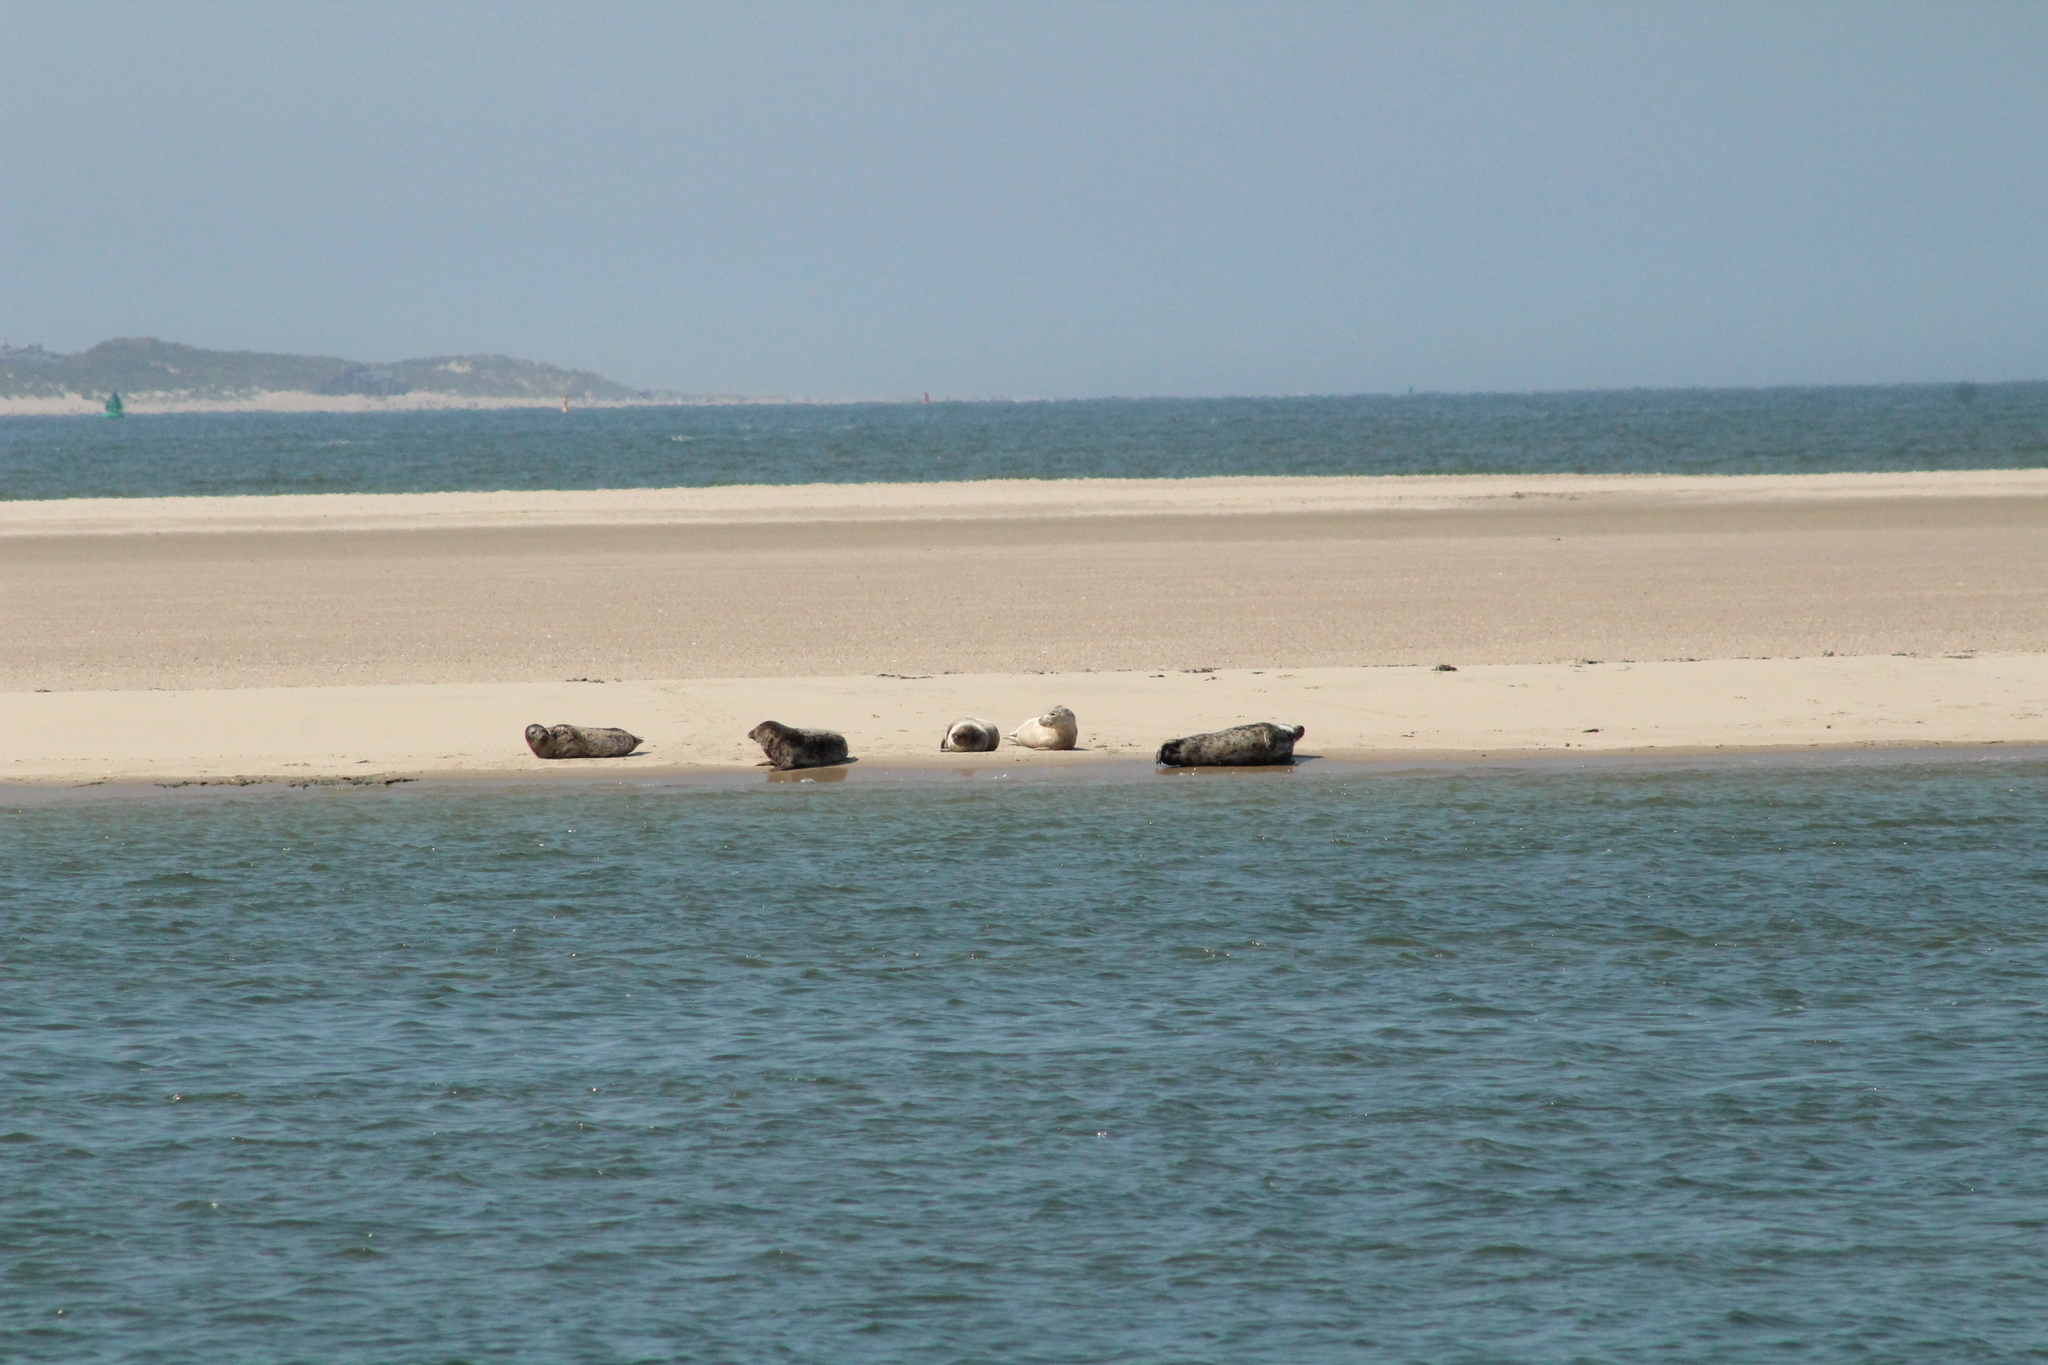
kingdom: Animalia
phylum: Chordata
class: Mammalia
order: Carnivora
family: Phocidae
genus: Halichoerus
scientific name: Halichoerus grypus
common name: Grey seal
